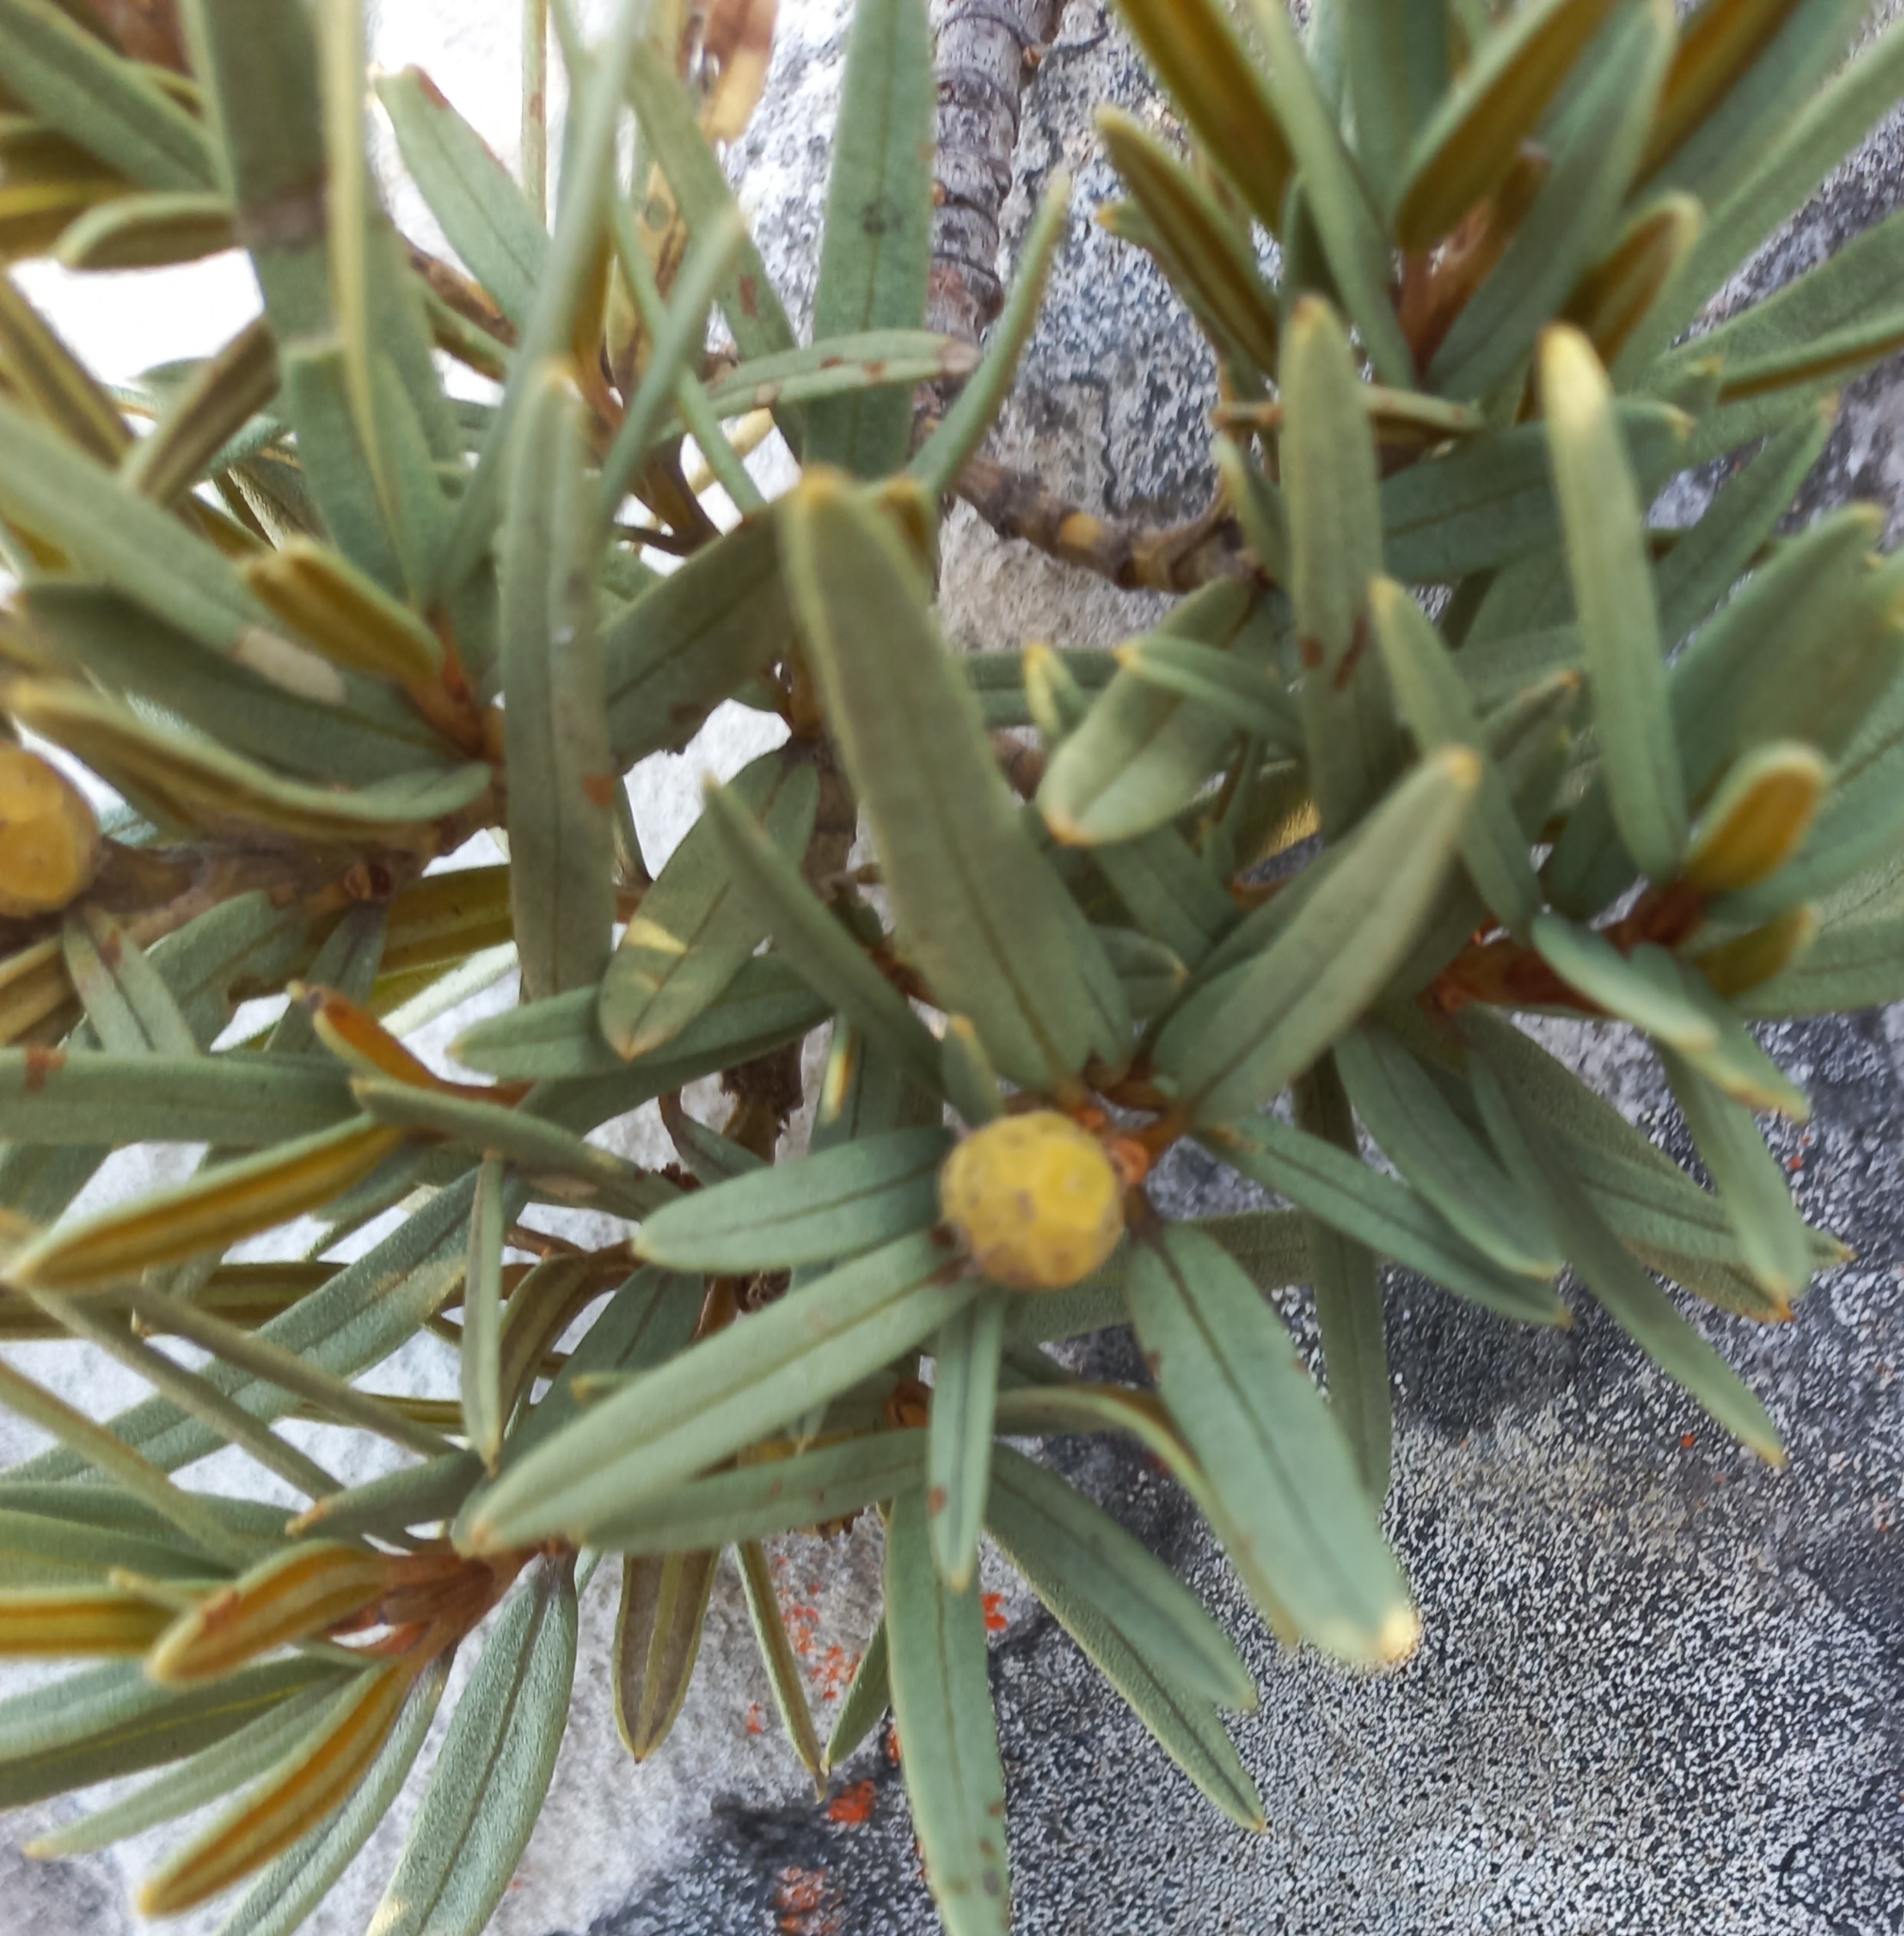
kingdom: Plantae
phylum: Tracheophyta
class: Magnoliopsida
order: Cornales
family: Grubbiaceae
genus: Grubbia
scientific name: Grubbia tomentosa
